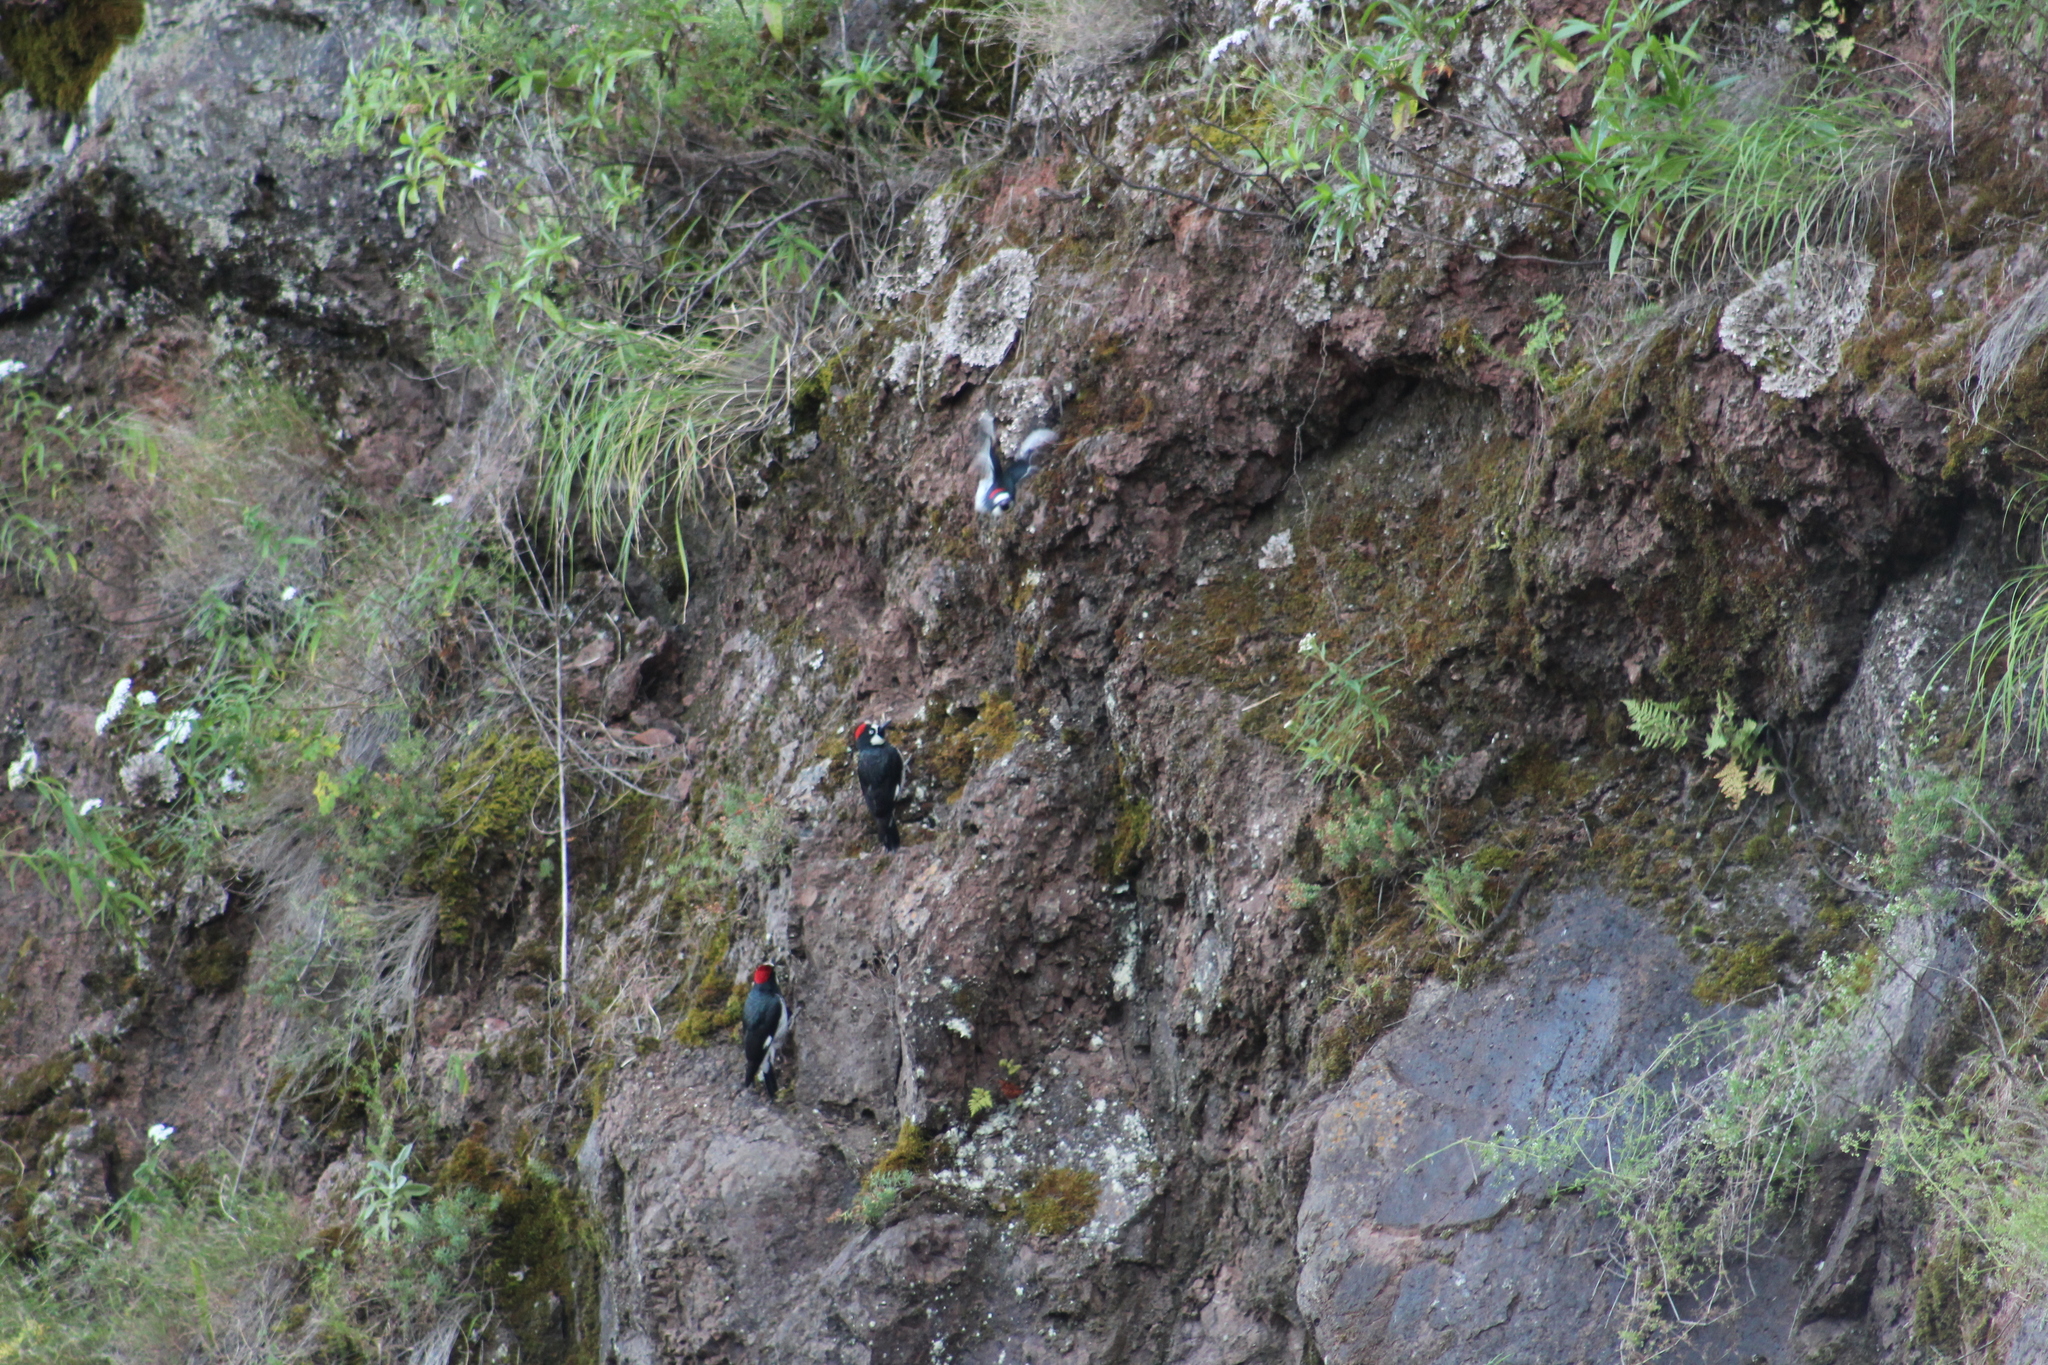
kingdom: Animalia
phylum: Chordata
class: Aves
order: Piciformes
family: Picidae
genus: Melanerpes
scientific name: Melanerpes formicivorus
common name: Acorn woodpecker
